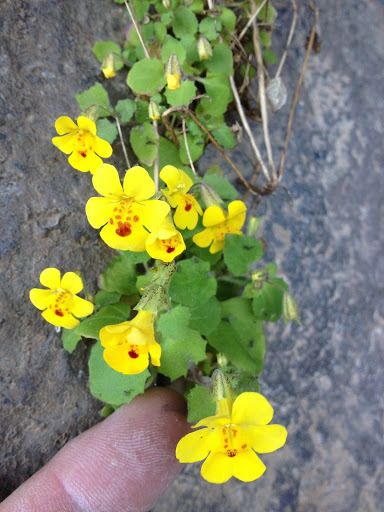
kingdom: Plantae
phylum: Tracheophyta
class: Magnoliopsida
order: Lamiales
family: Phrymaceae
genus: Erythranthe
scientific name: Erythranthe marmorata
